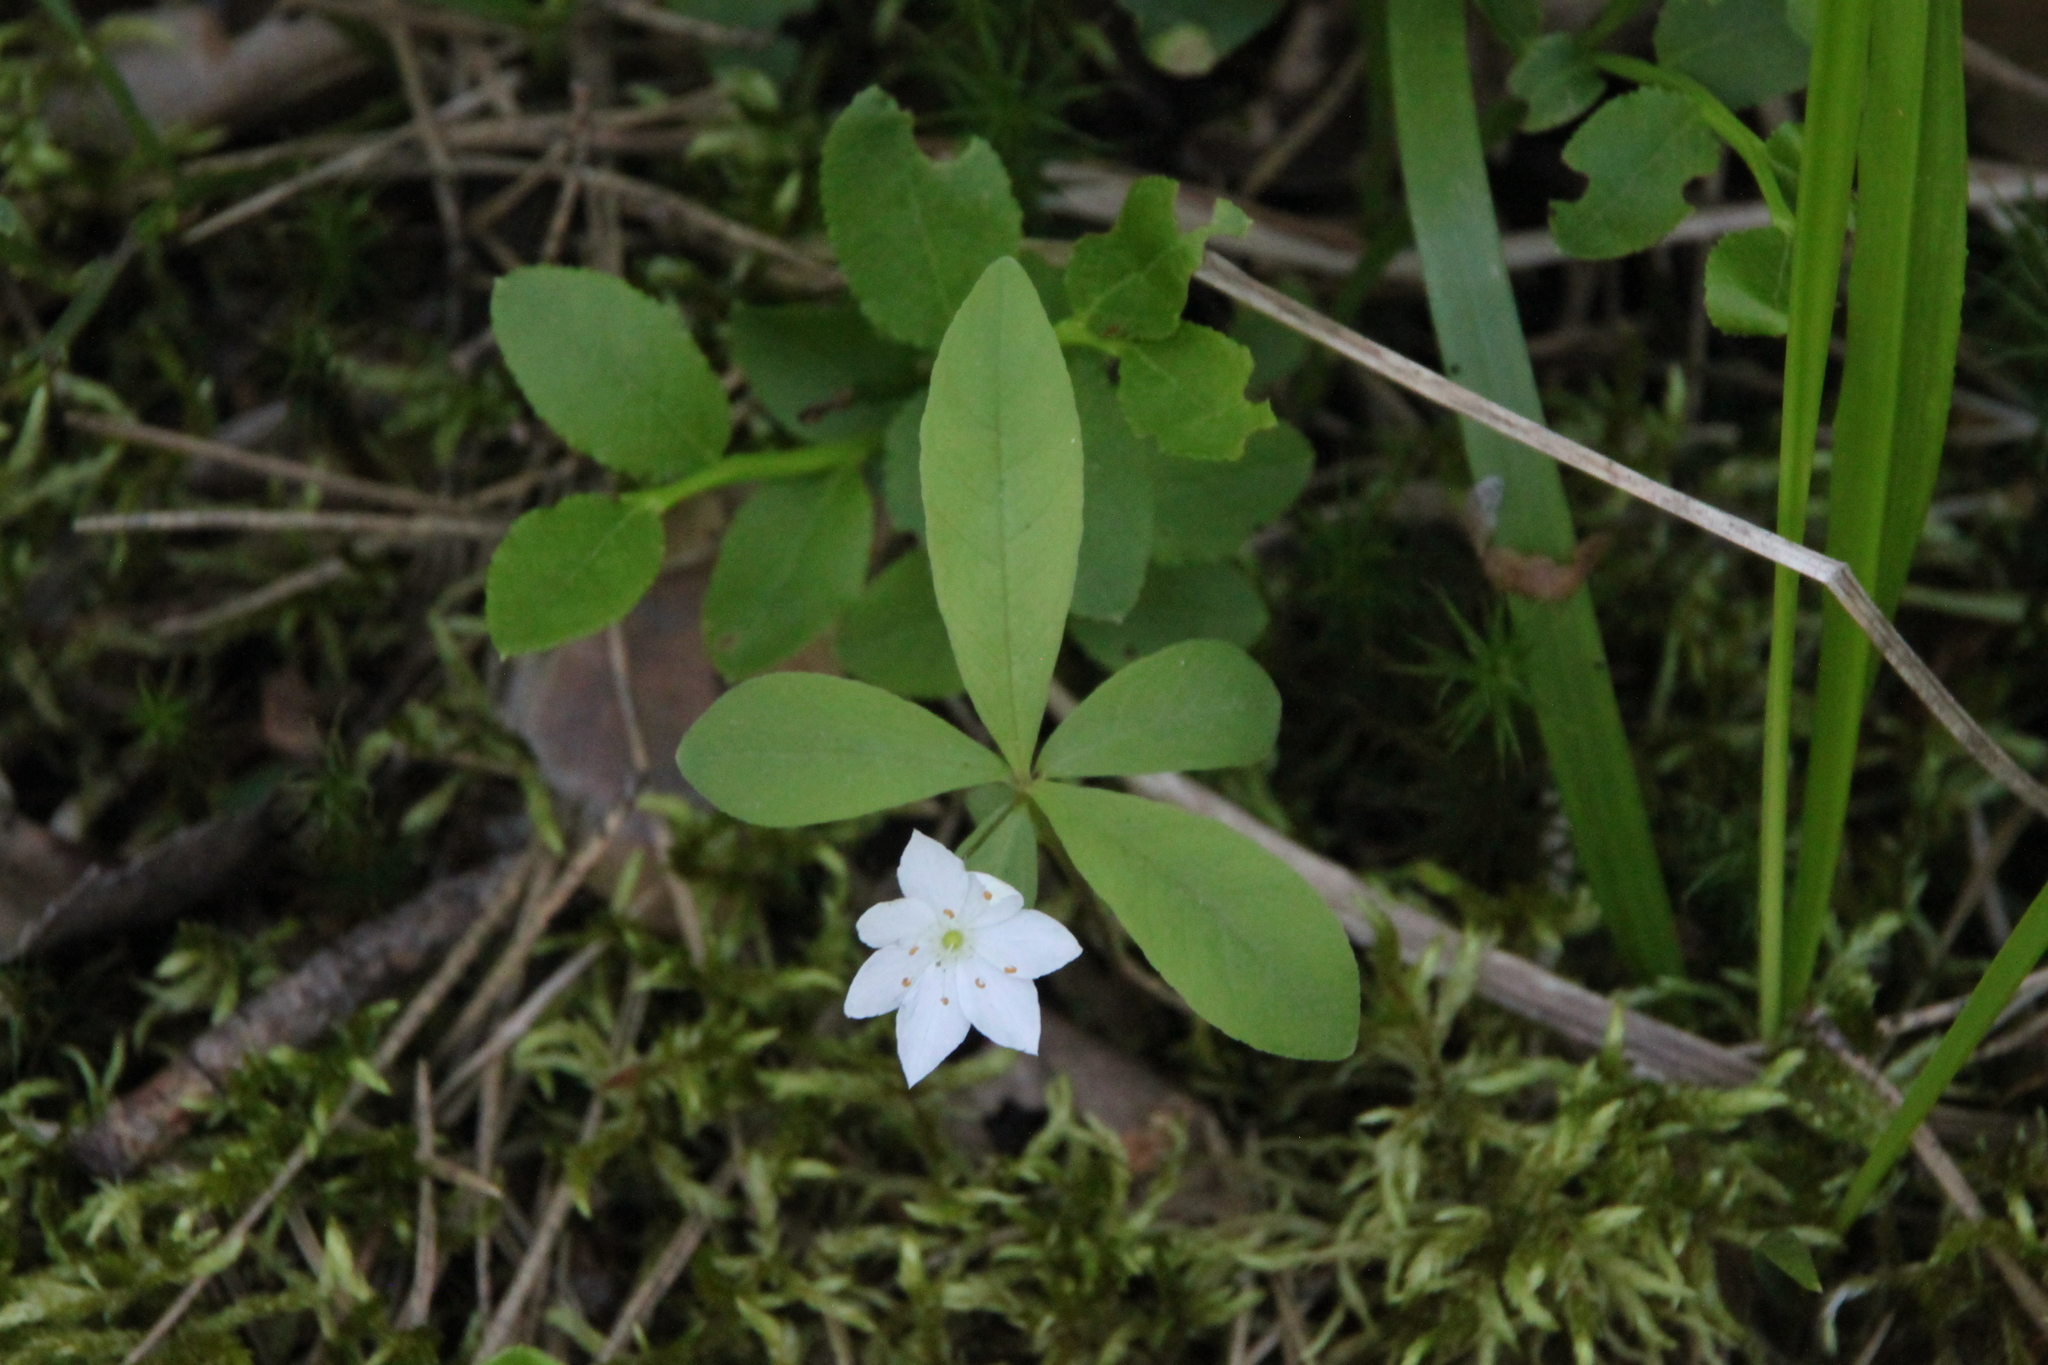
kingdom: Plantae
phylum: Tracheophyta
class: Magnoliopsida
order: Ericales
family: Primulaceae
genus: Lysimachia
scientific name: Lysimachia europaea
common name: Arctic starflower
